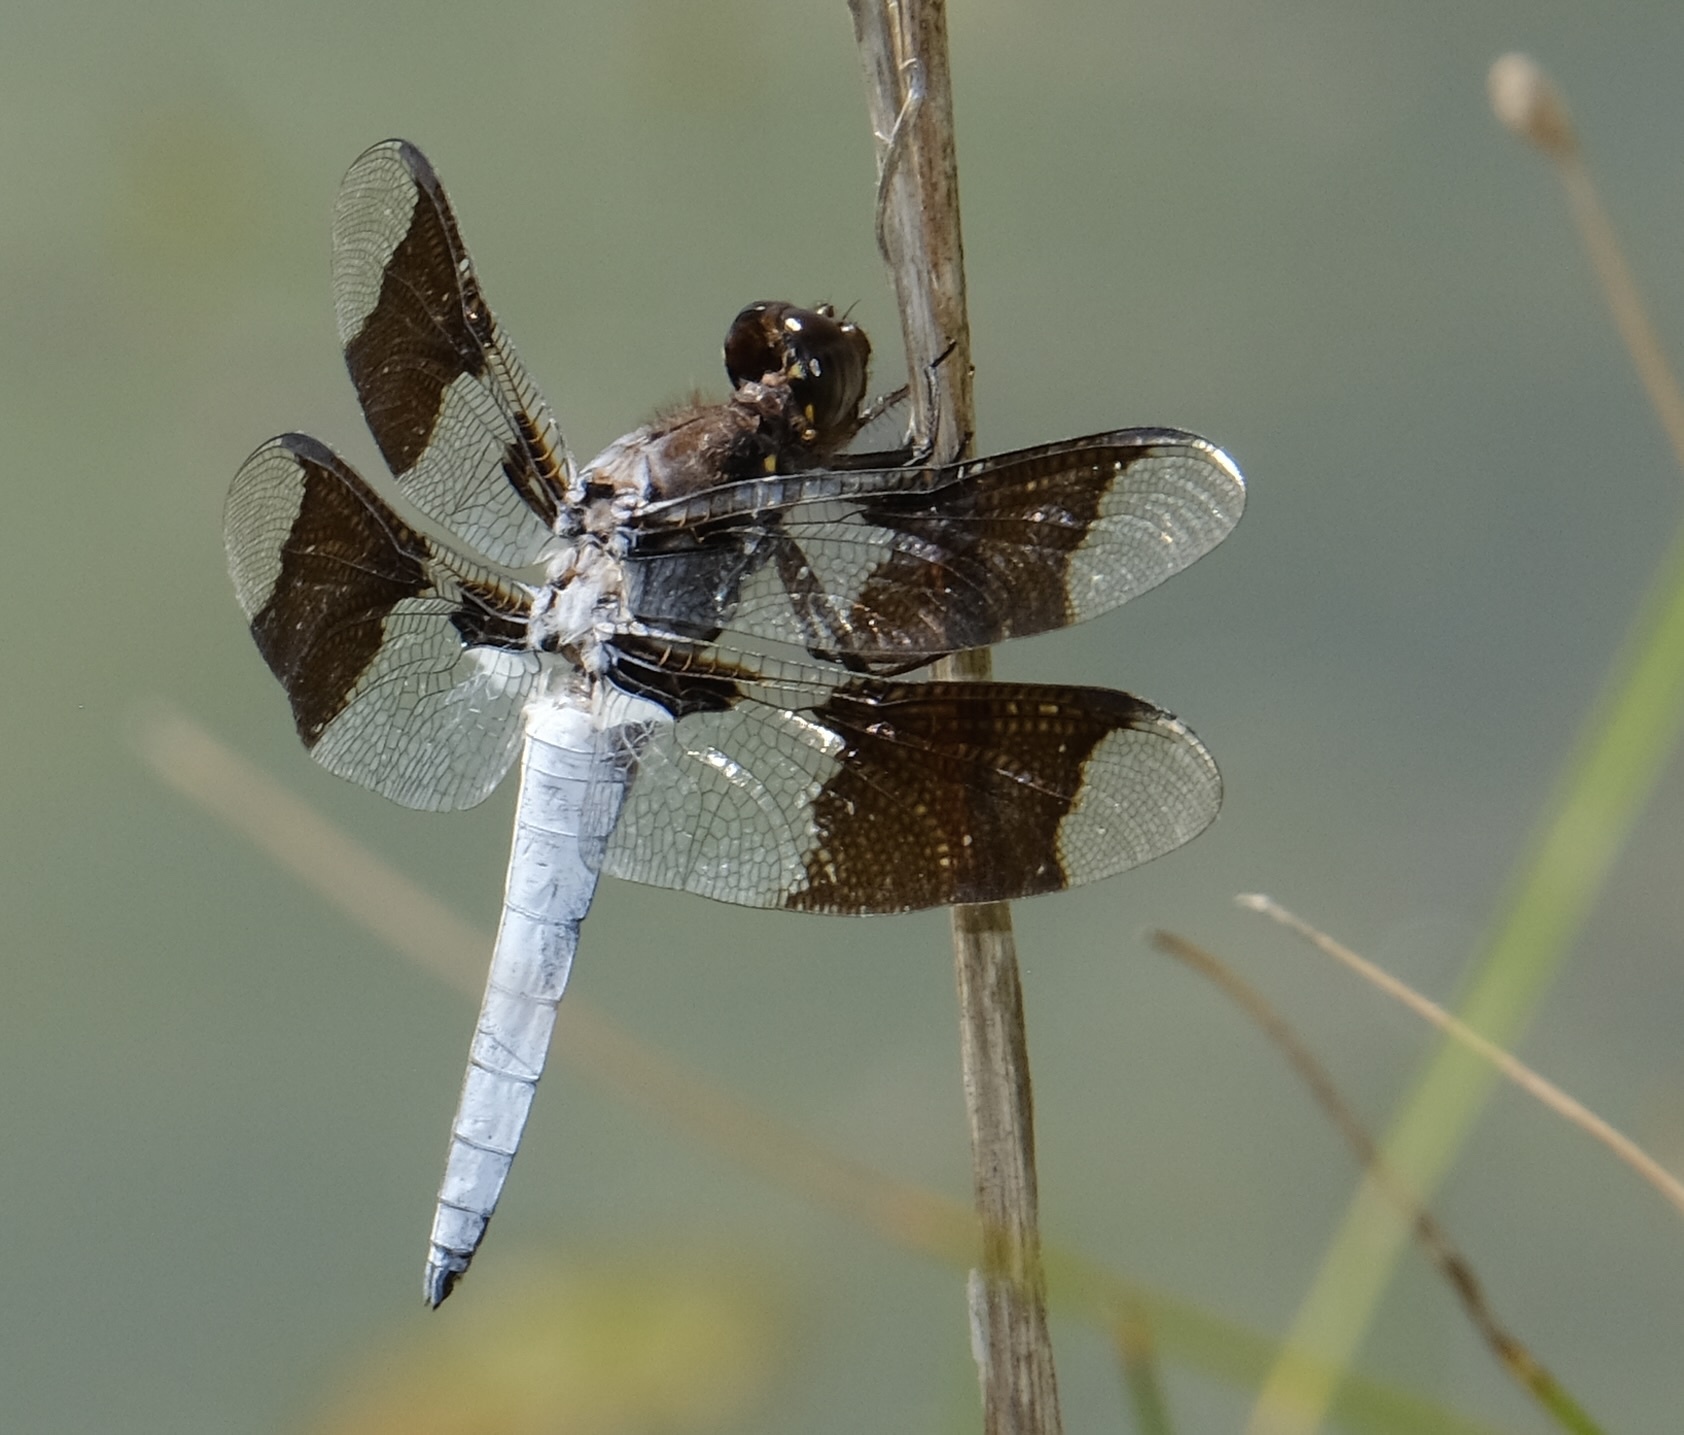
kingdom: Animalia
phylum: Arthropoda
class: Insecta
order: Odonata
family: Libellulidae
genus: Plathemis
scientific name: Plathemis lydia
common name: Common whitetail
